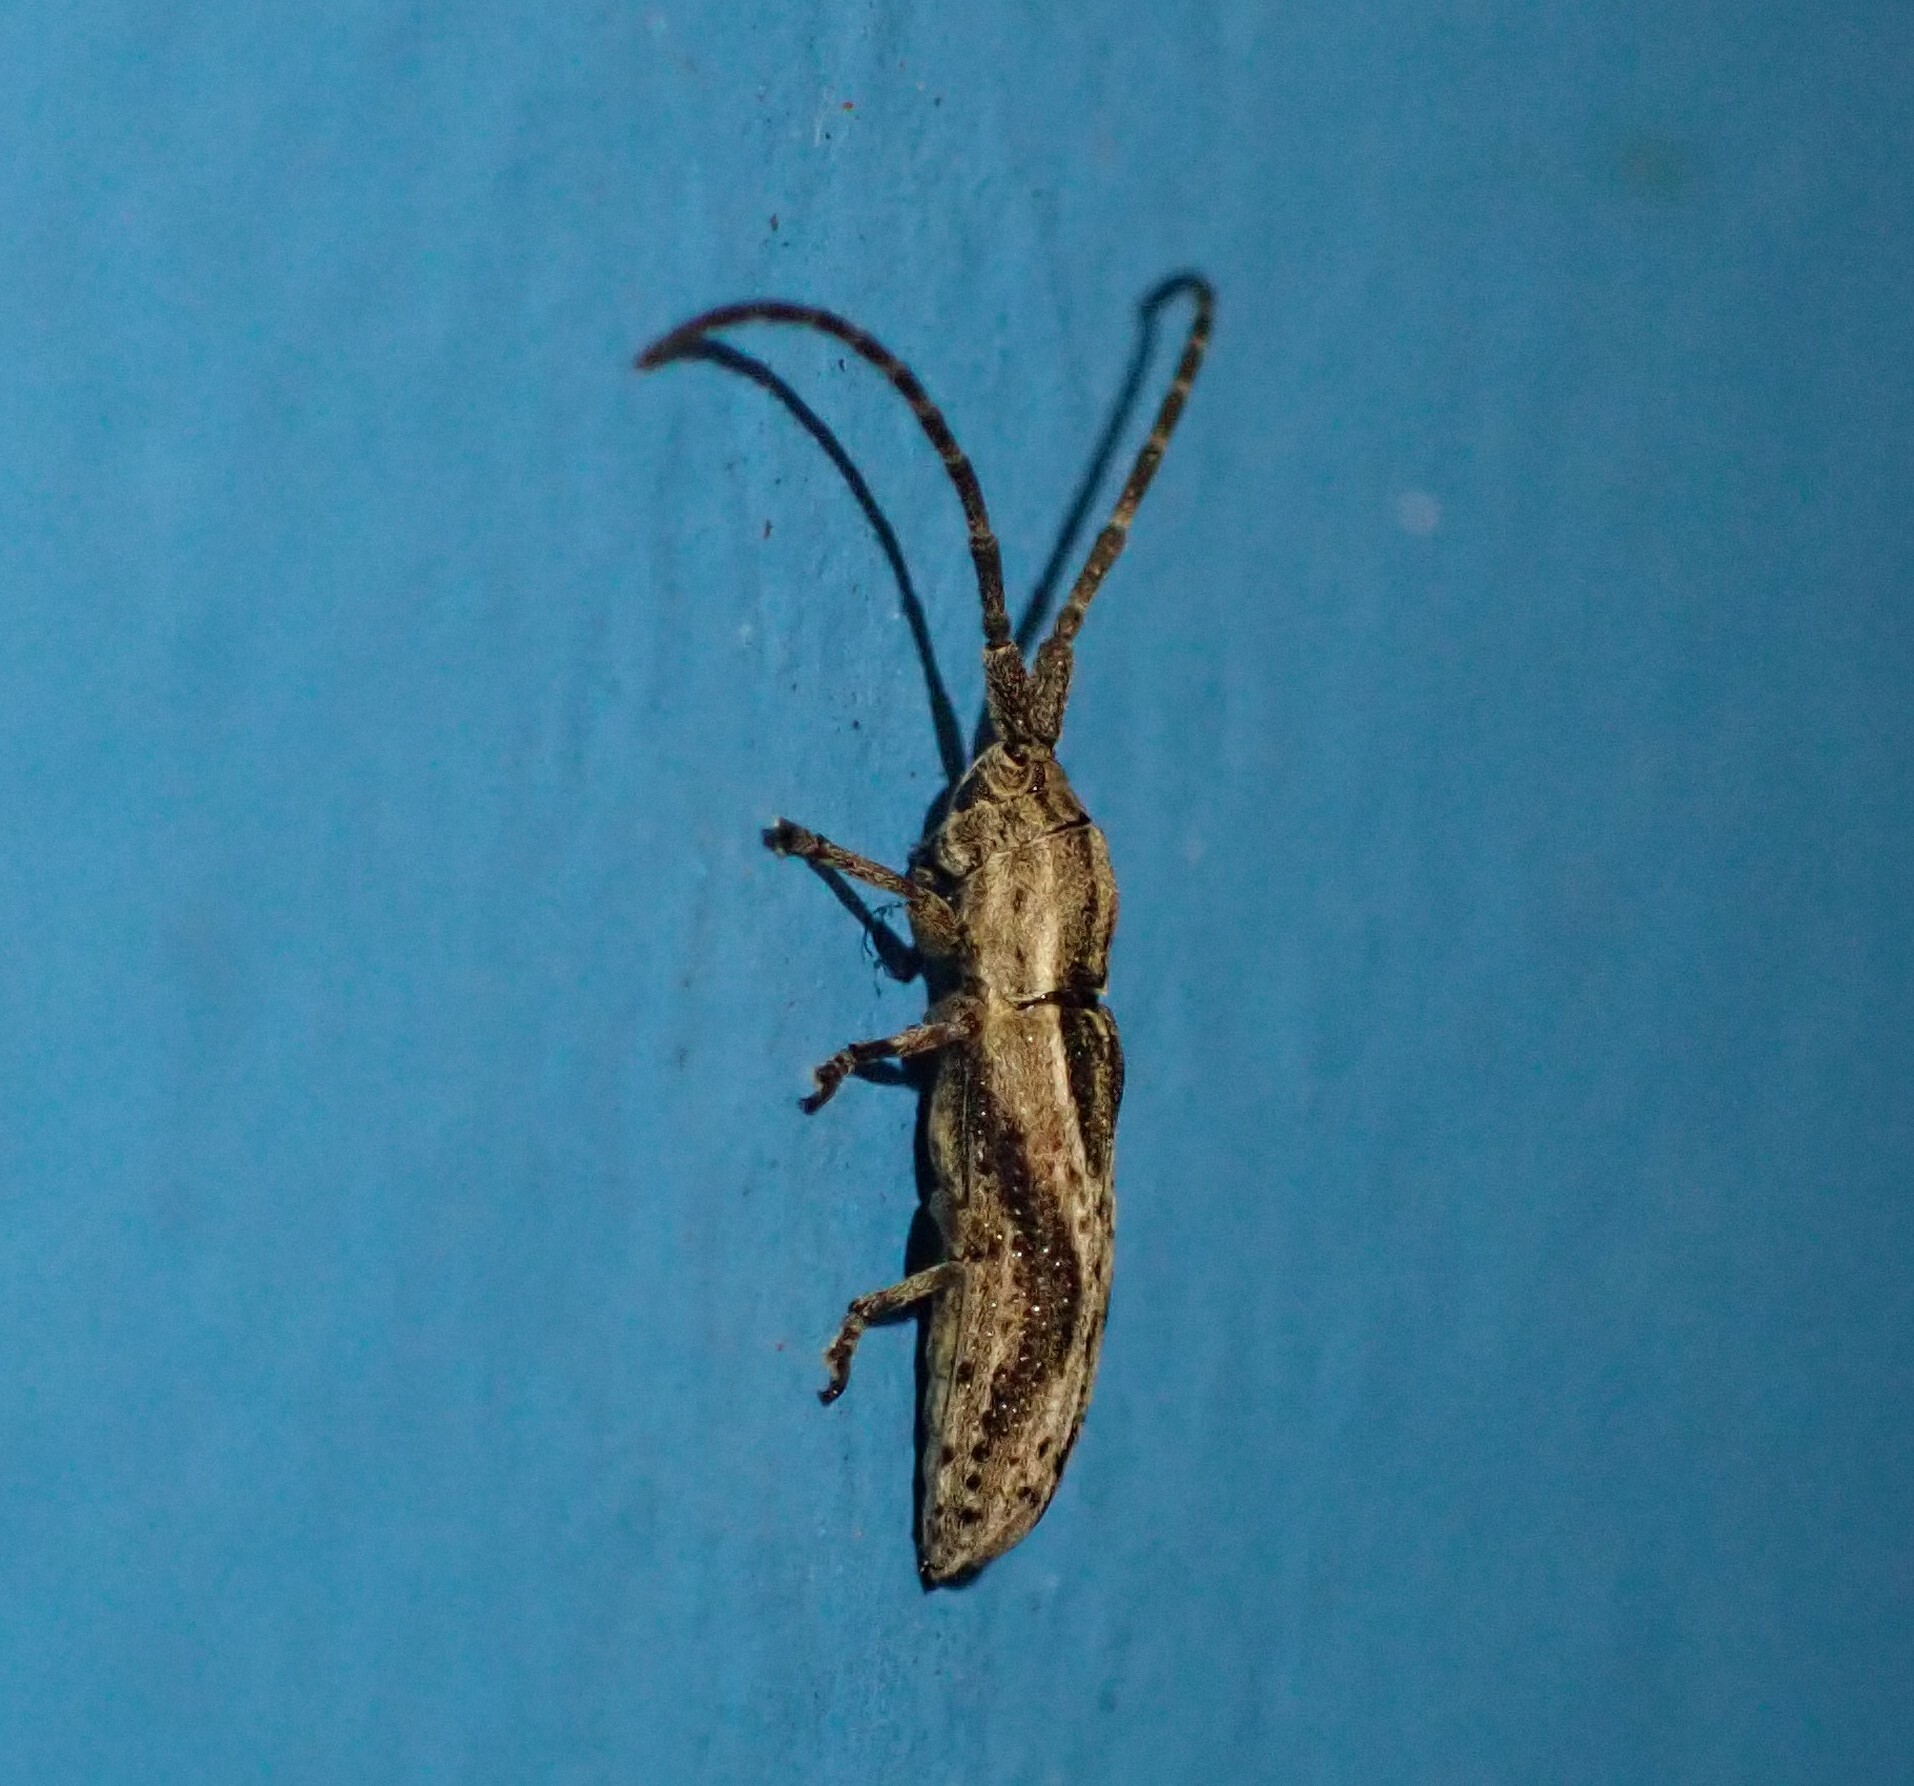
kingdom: Animalia
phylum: Arthropoda
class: Insecta
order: Coleoptera
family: Cerambycidae
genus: Bebelis
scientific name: Bebelis lignosa
